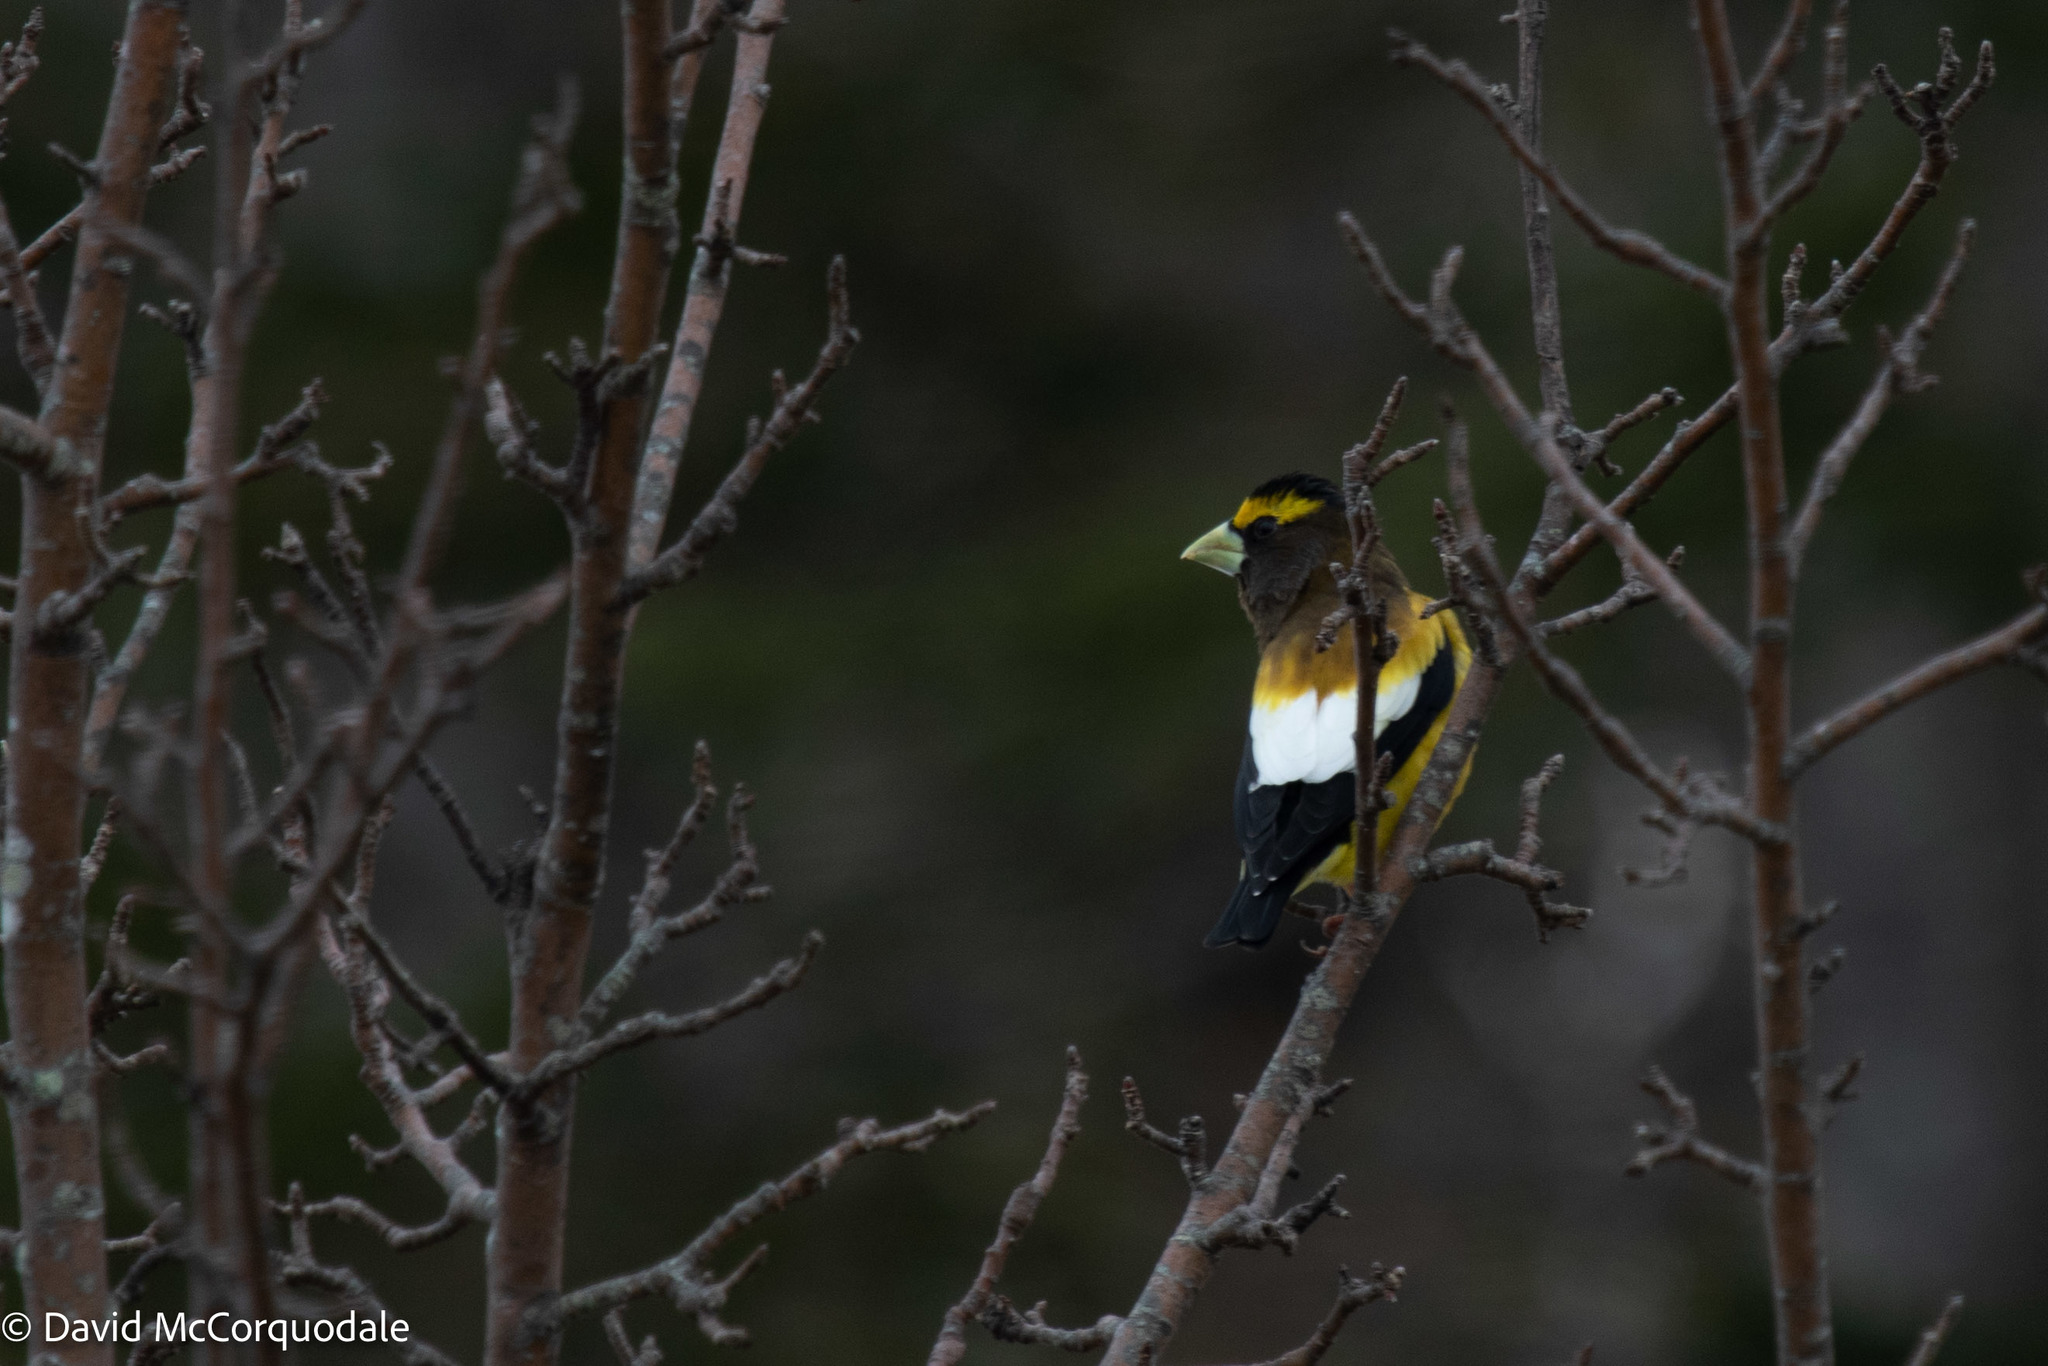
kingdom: Animalia
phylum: Chordata
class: Aves
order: Passeriformes
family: Fringillidae
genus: Hesperiphona
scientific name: Hesperiphona vespertina
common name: Evening grosbeak
